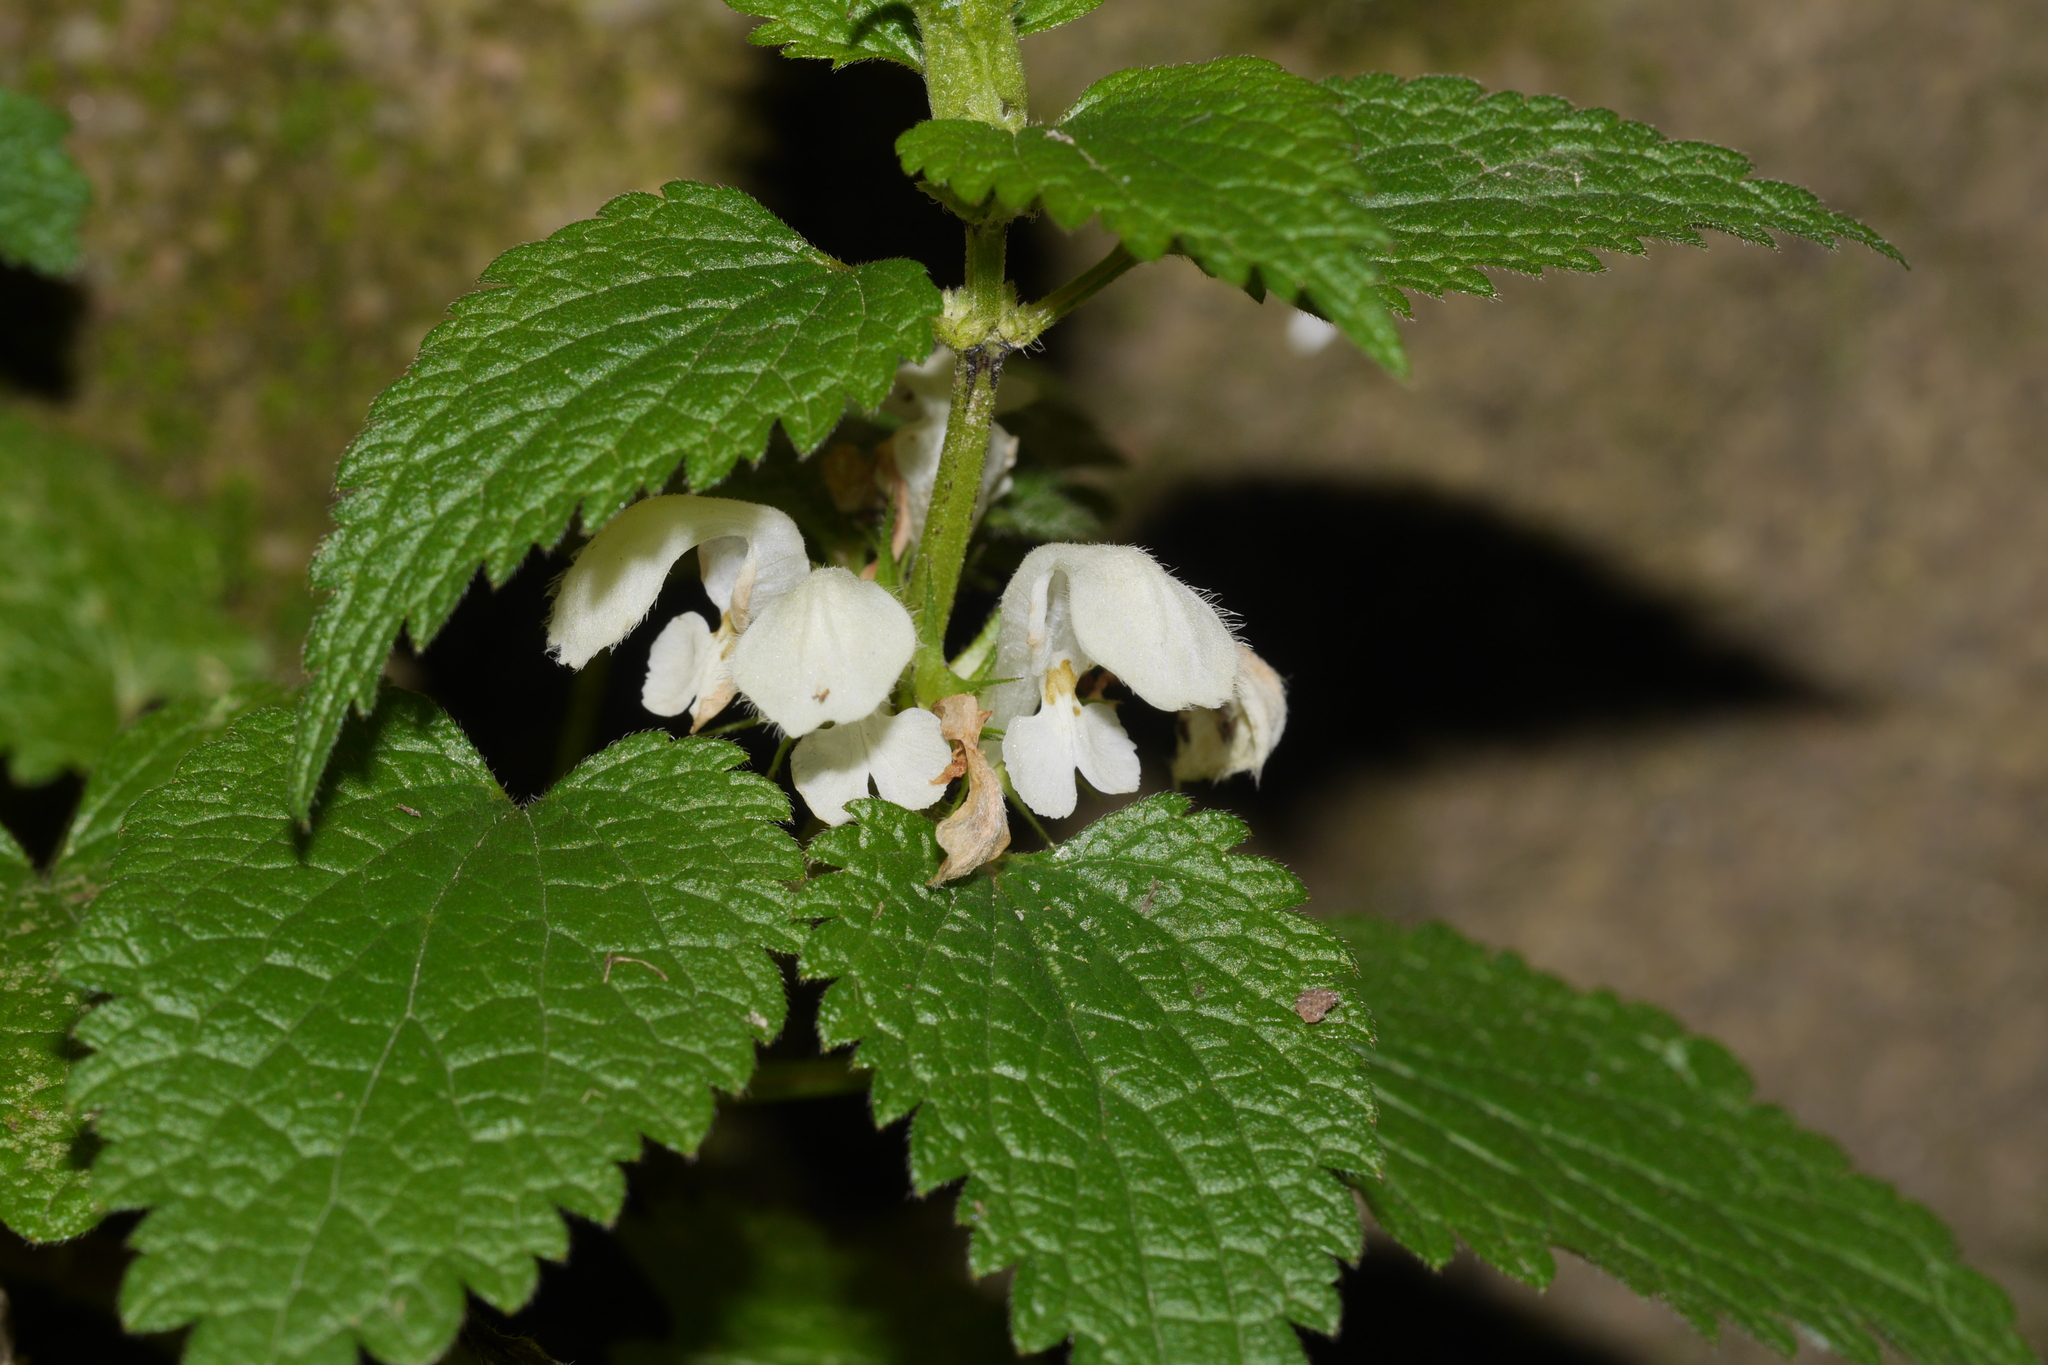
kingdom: Plantae
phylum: Tracheophyta
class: Magnoliopsida
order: Lamiales
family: Lamiaceae
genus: Lamium
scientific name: Lamium album
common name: White dead-nettle
